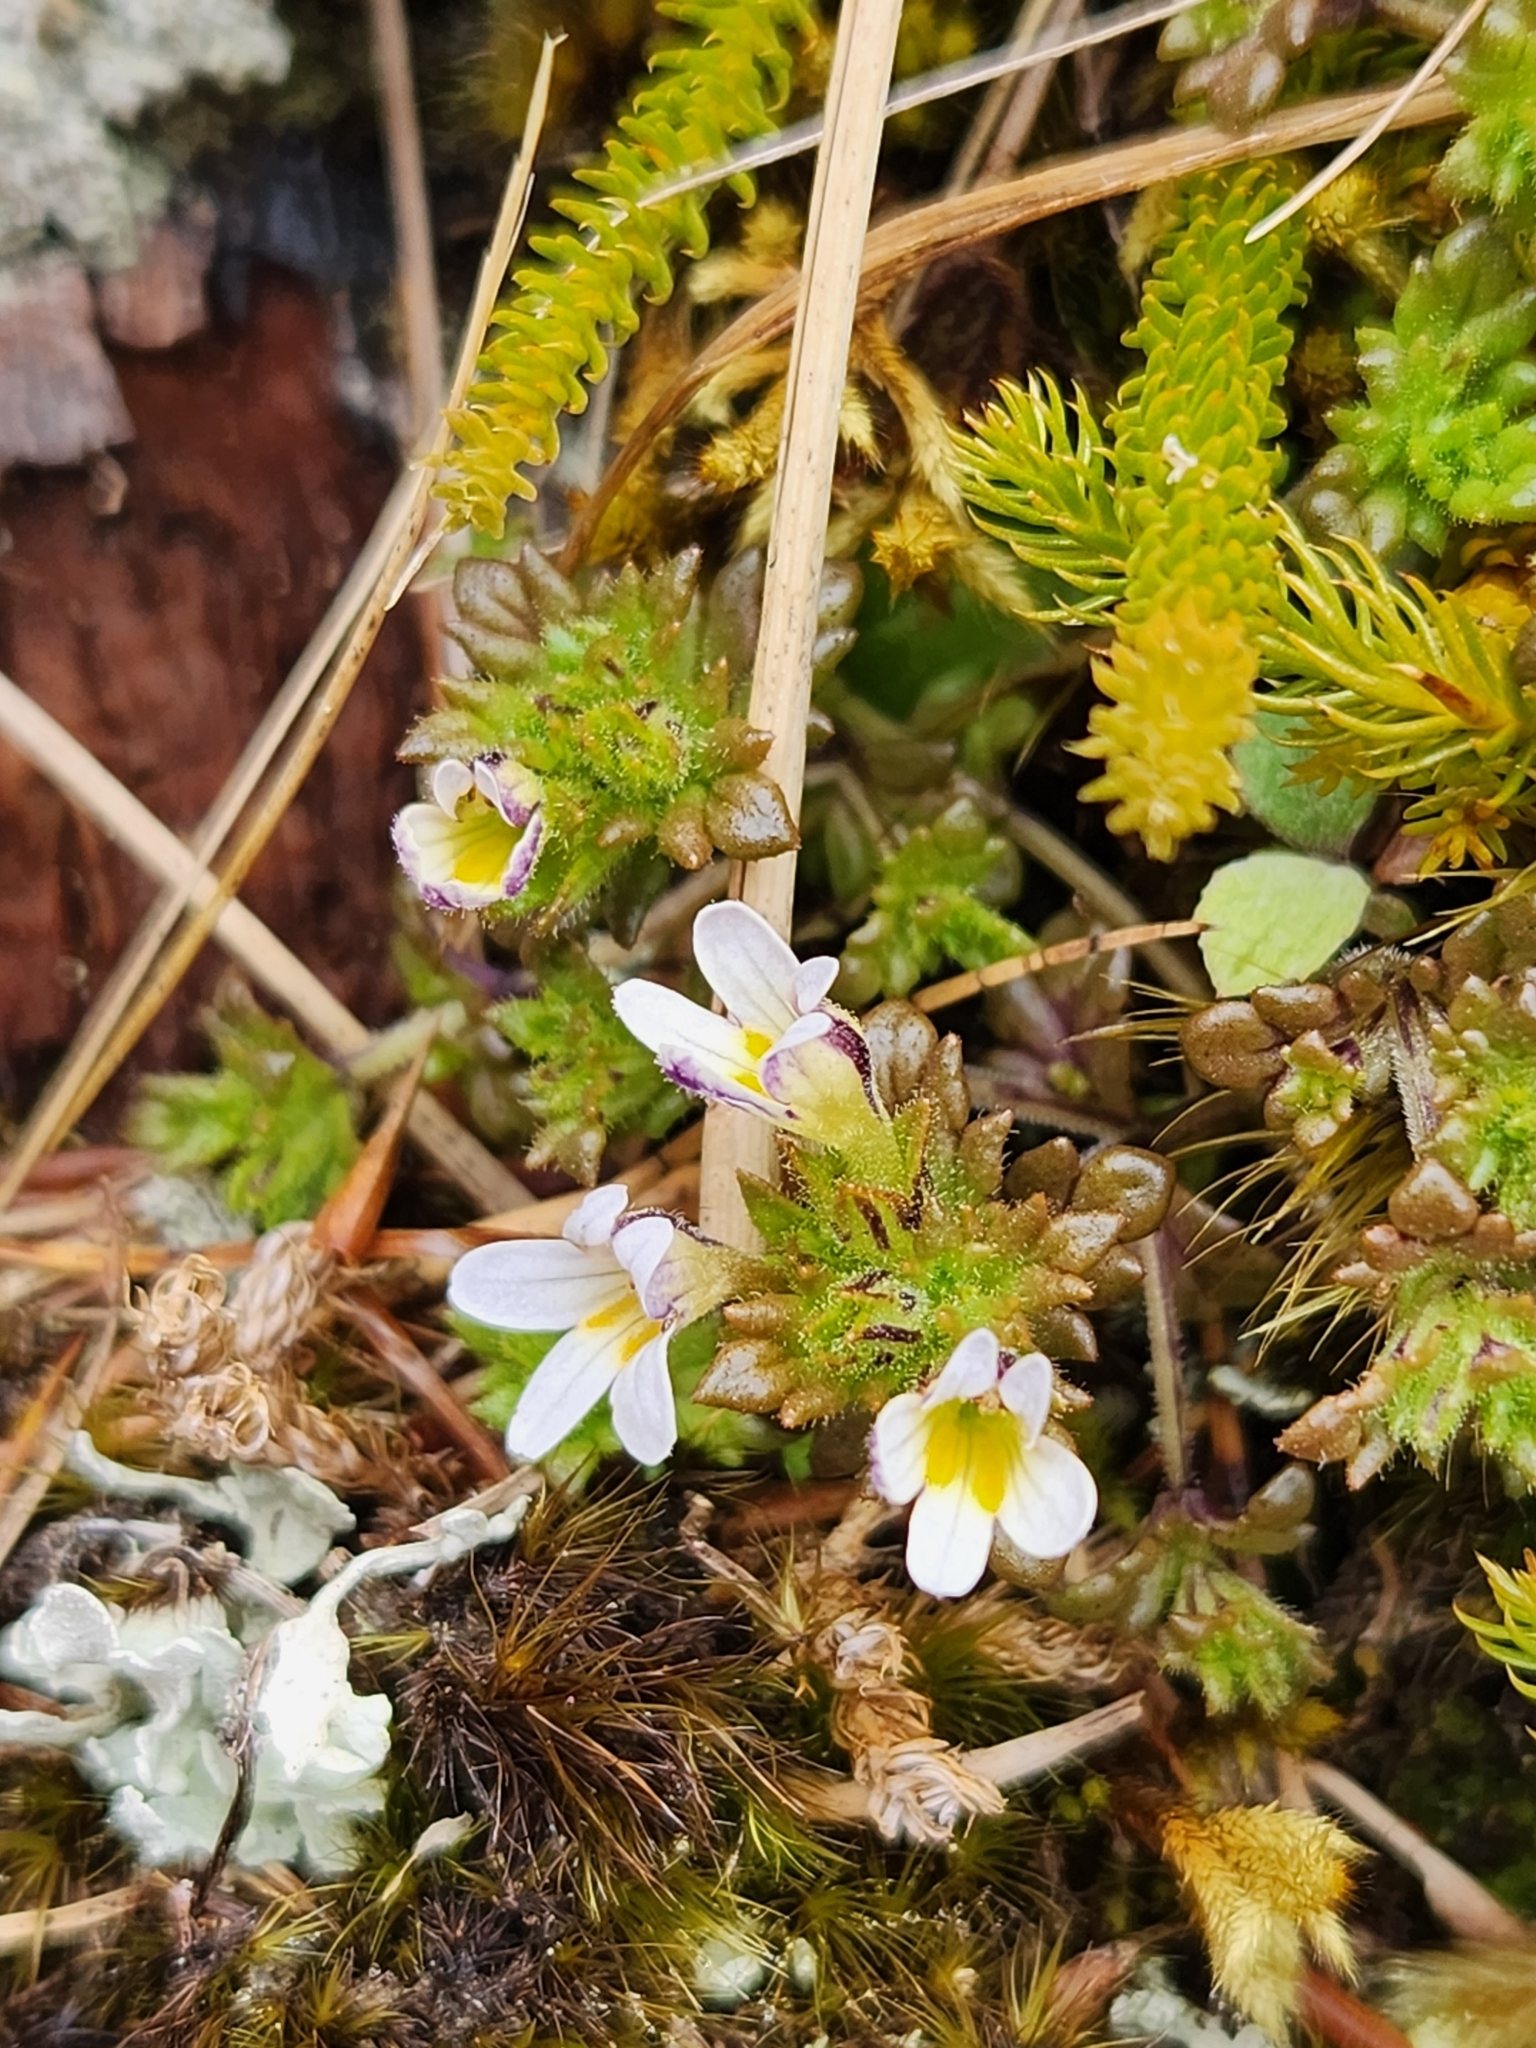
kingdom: Plantae
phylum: Tracheophyta
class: Magnoliopsida
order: Lamiales
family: Orobanchaceae
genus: Euphrasia
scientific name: Euphrasia zelandica
